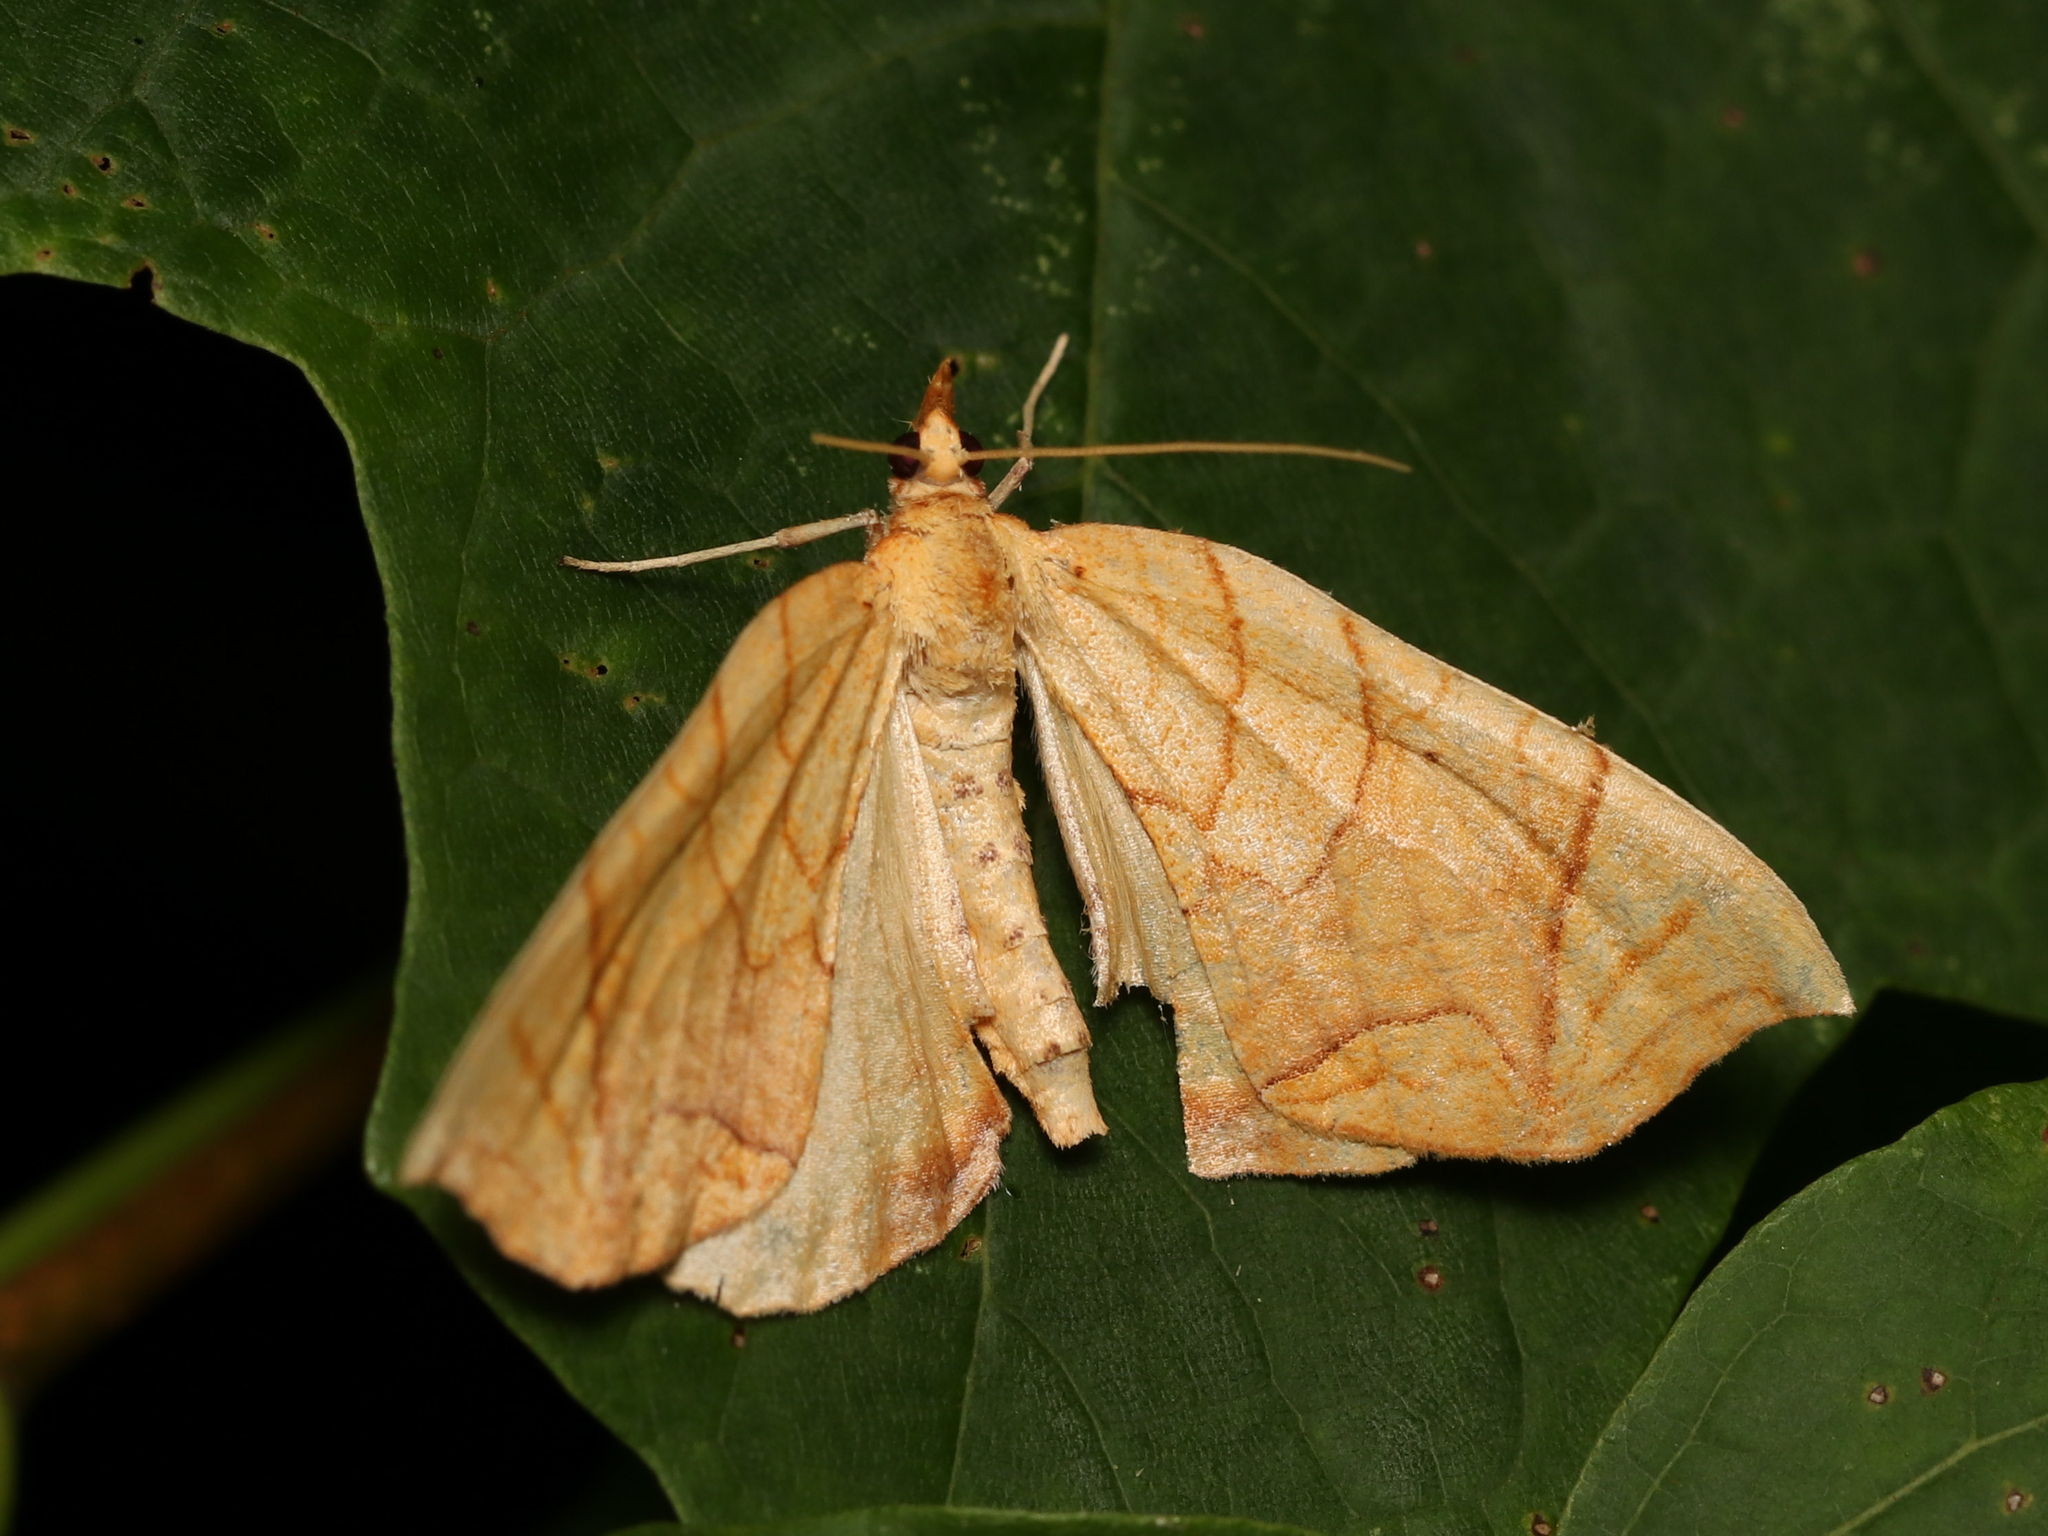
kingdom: Animalia
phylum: Arthropoda
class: Insecta
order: Lepidoptera
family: Geometridae
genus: Eulithis
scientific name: Eulithis
